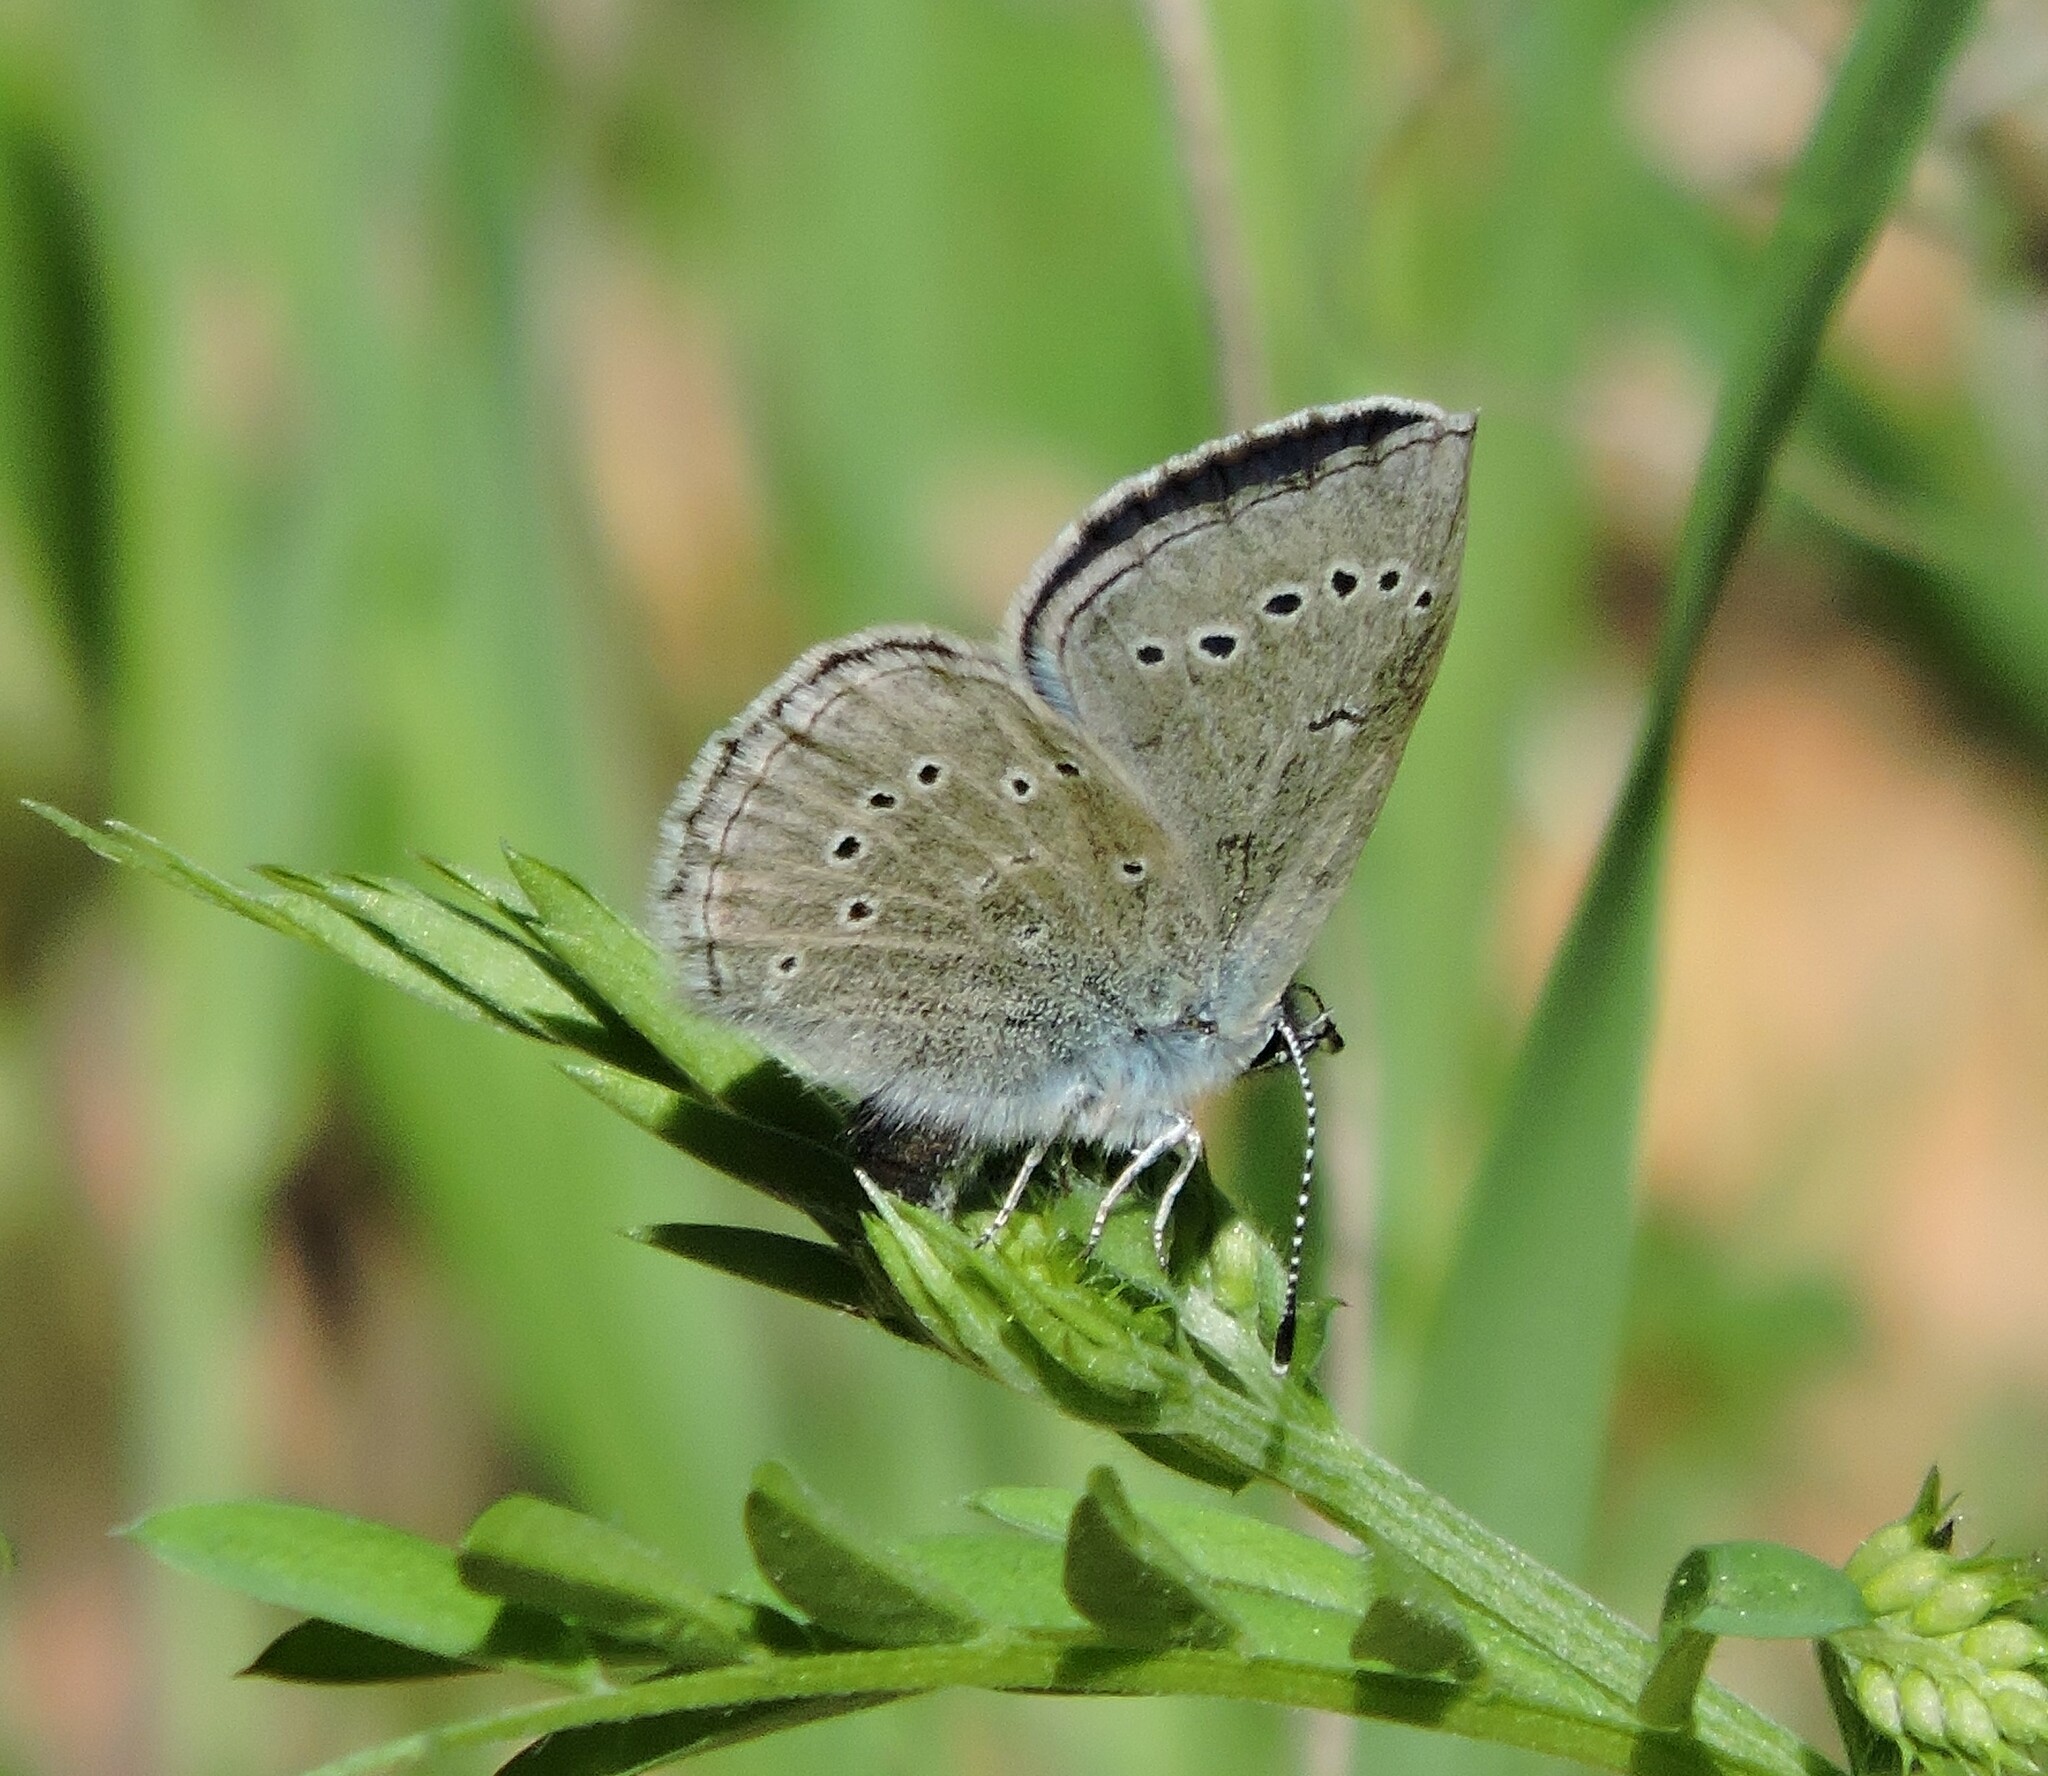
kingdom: Animalia
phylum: Arthropoda
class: Insecta
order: Lepidoptera
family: Lycaenidae
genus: Glaucopsyche
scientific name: Glaucopsyche lygdamus
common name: Silvery blue
